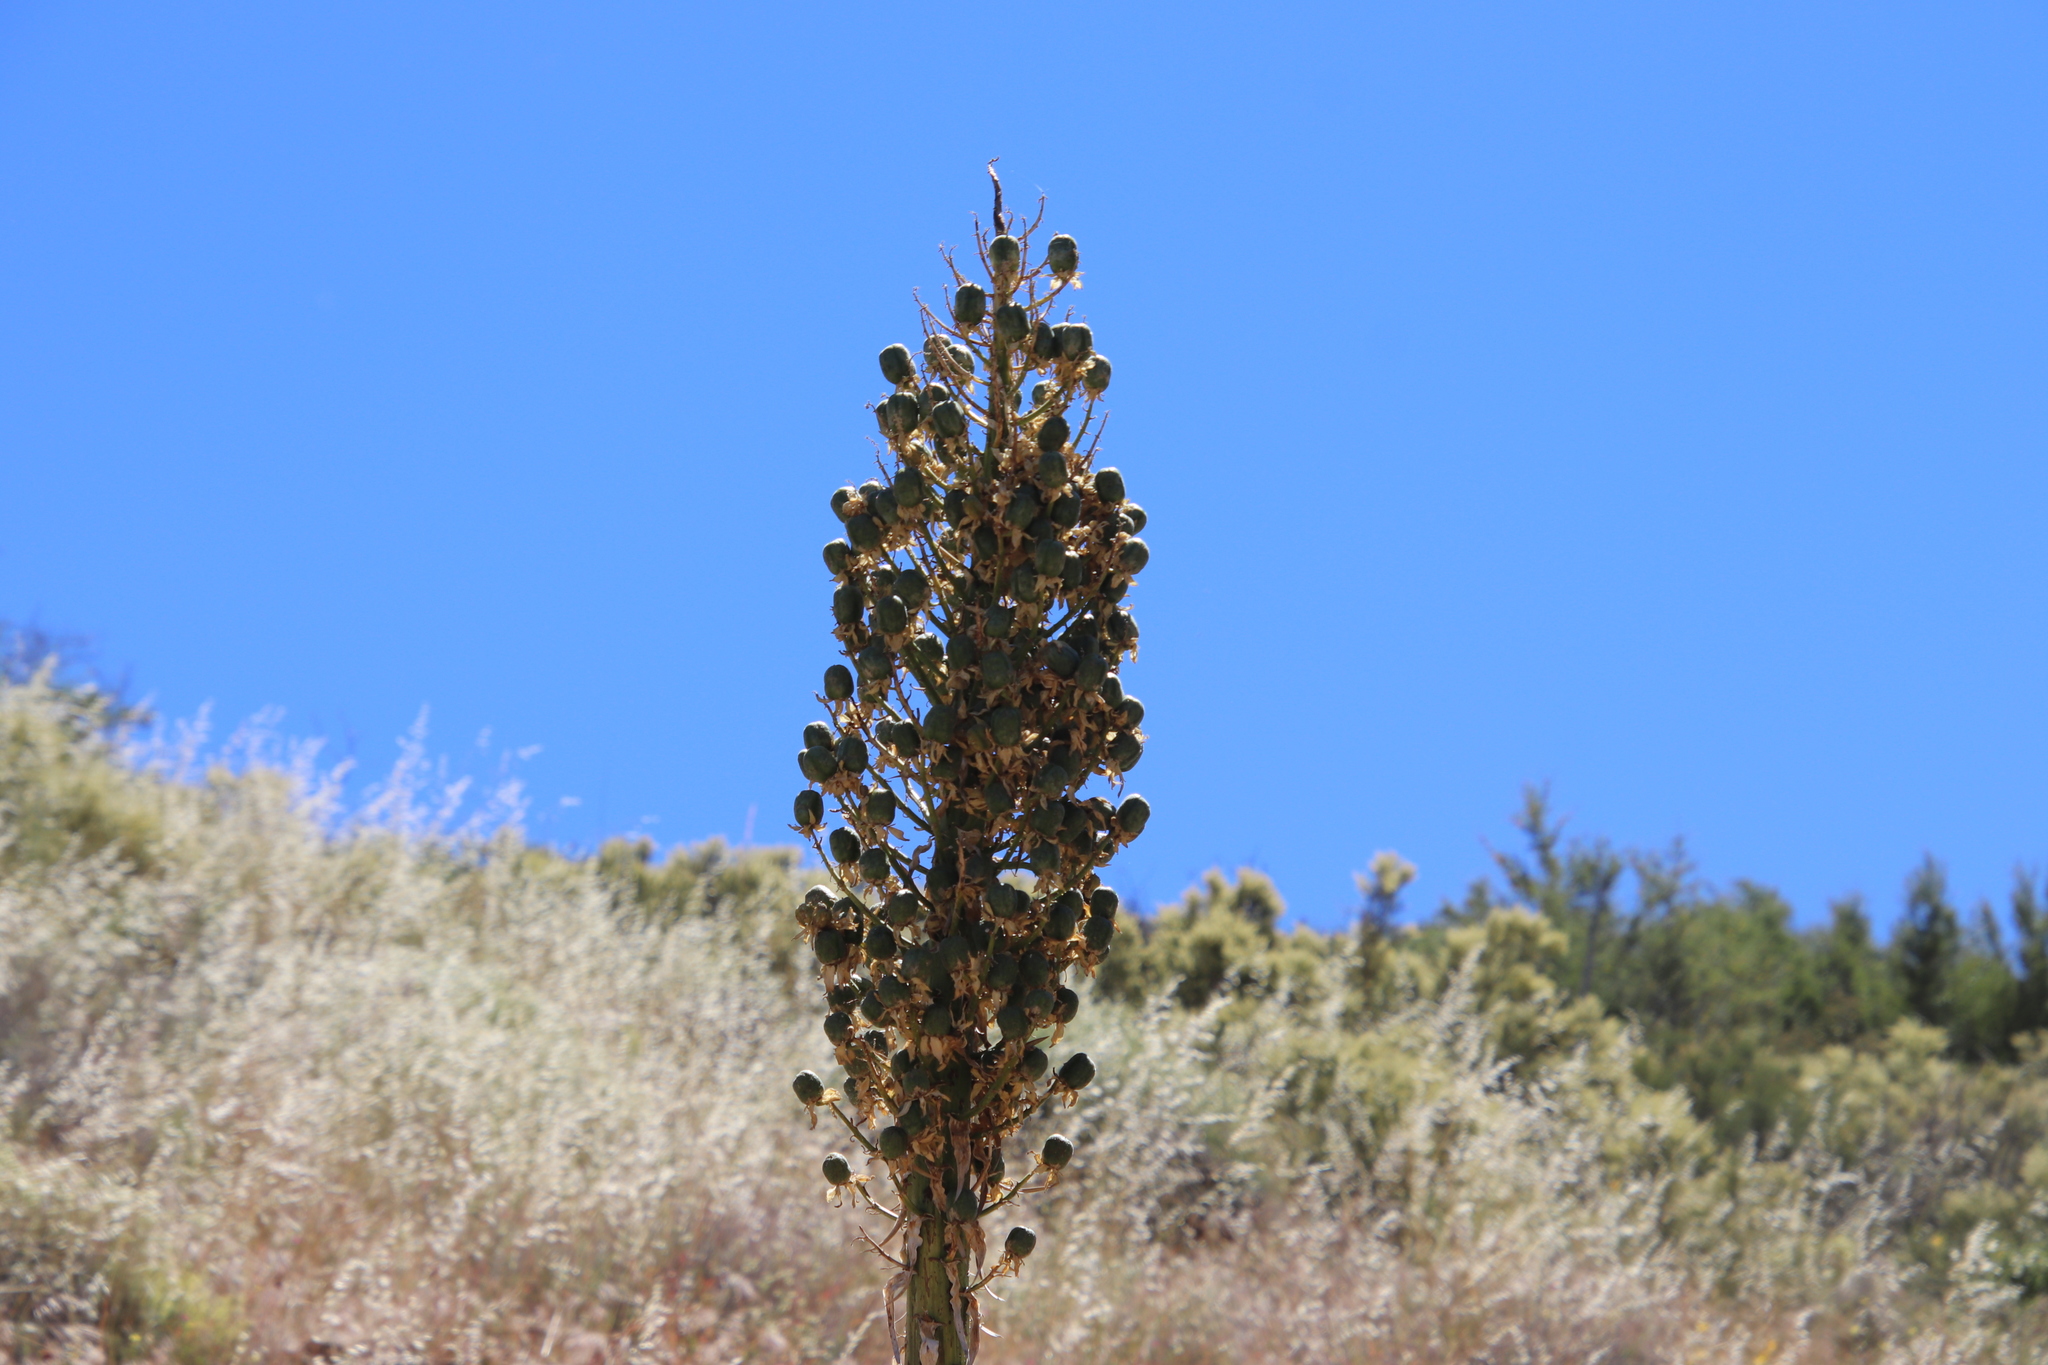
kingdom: Plantae
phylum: Tracheophyta
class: Liliopsida
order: Asparagales
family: Asparagaceae
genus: Hesperoyucca
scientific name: Hesperoyucca whipplei
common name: Our lord's-candle
